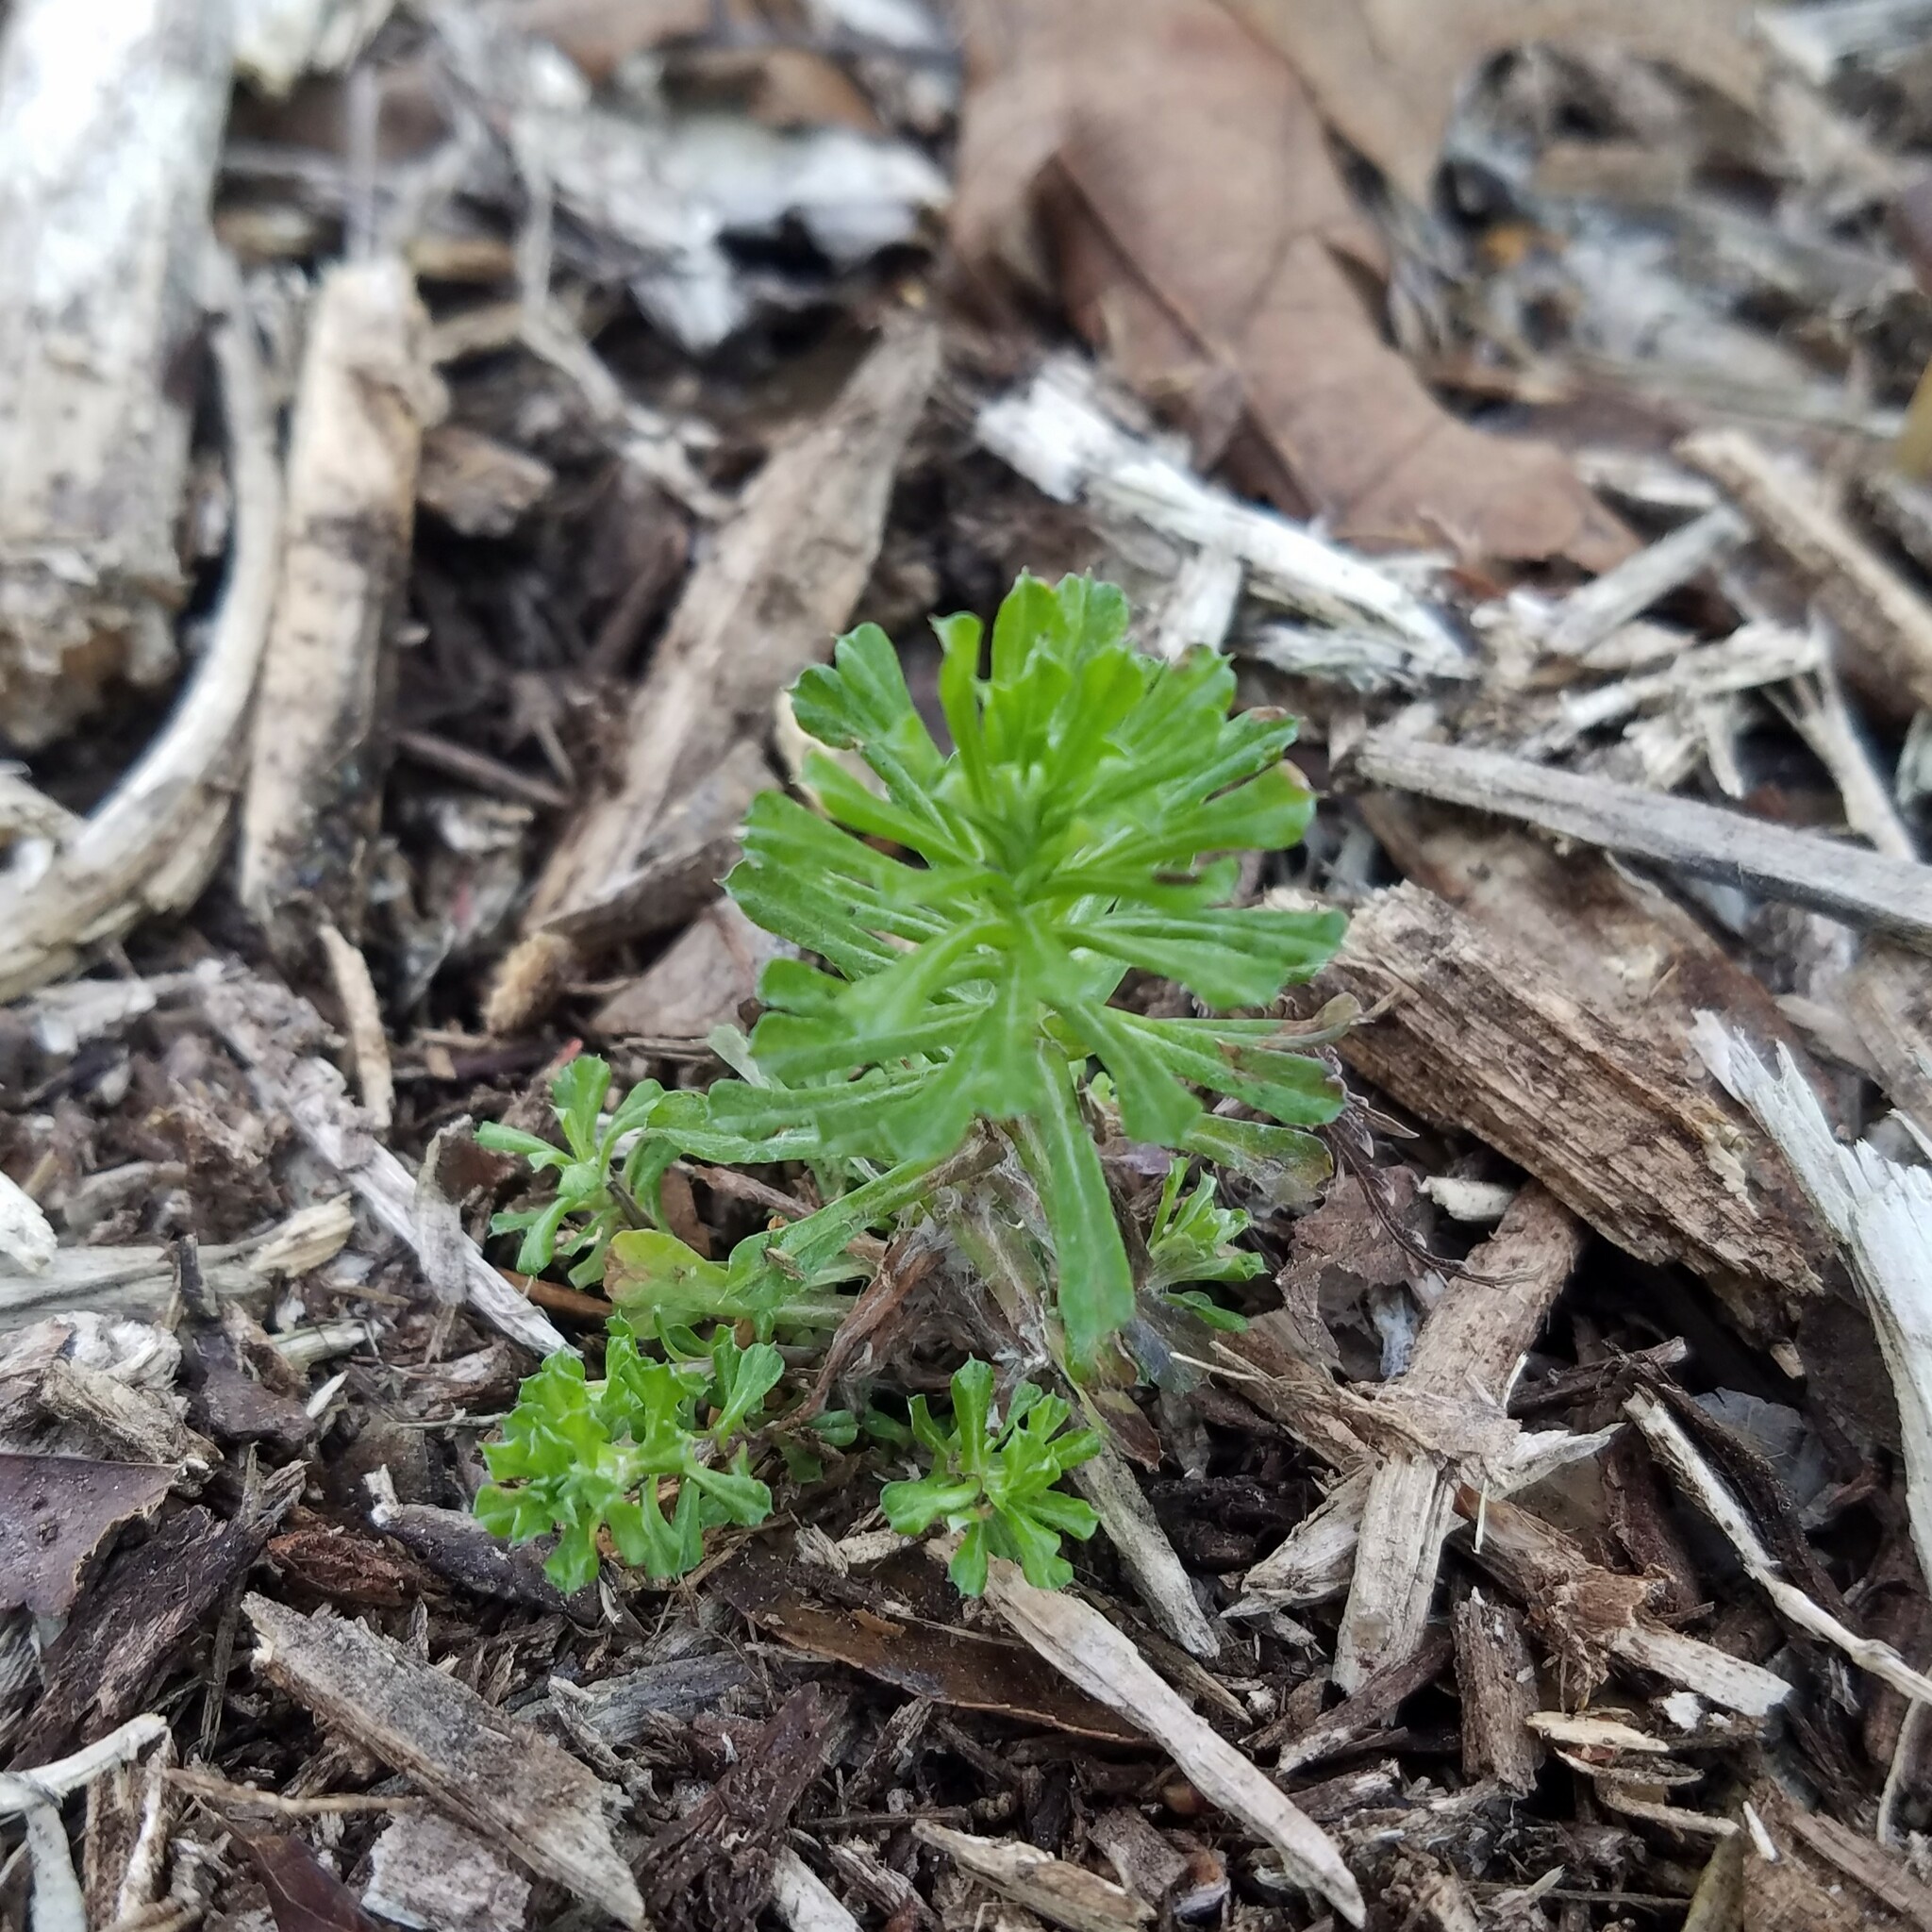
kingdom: Plantae
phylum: Tracheophyta
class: Magnoliopsida
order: Asterales
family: Asteraceae
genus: Facelis
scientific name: Facelis retusa
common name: Annual trampweed
